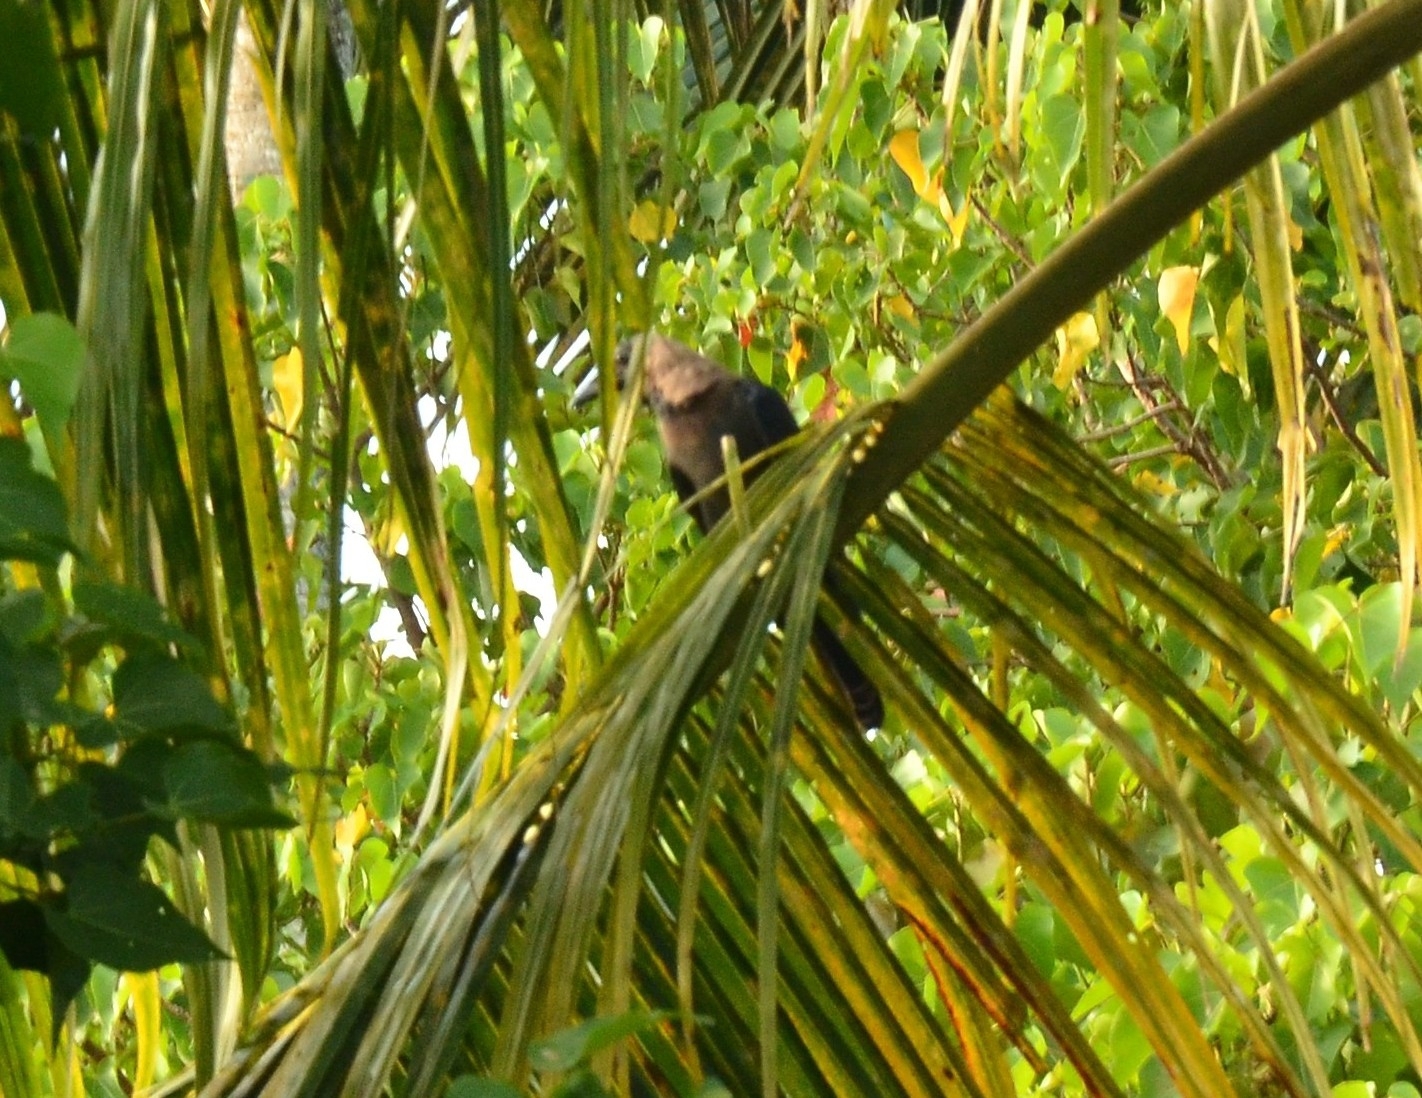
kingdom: Animalia
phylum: Chordata
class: Aves
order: Passeriformes
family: Corvidae
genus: Corvus
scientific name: Corvus splendens
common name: House crow
